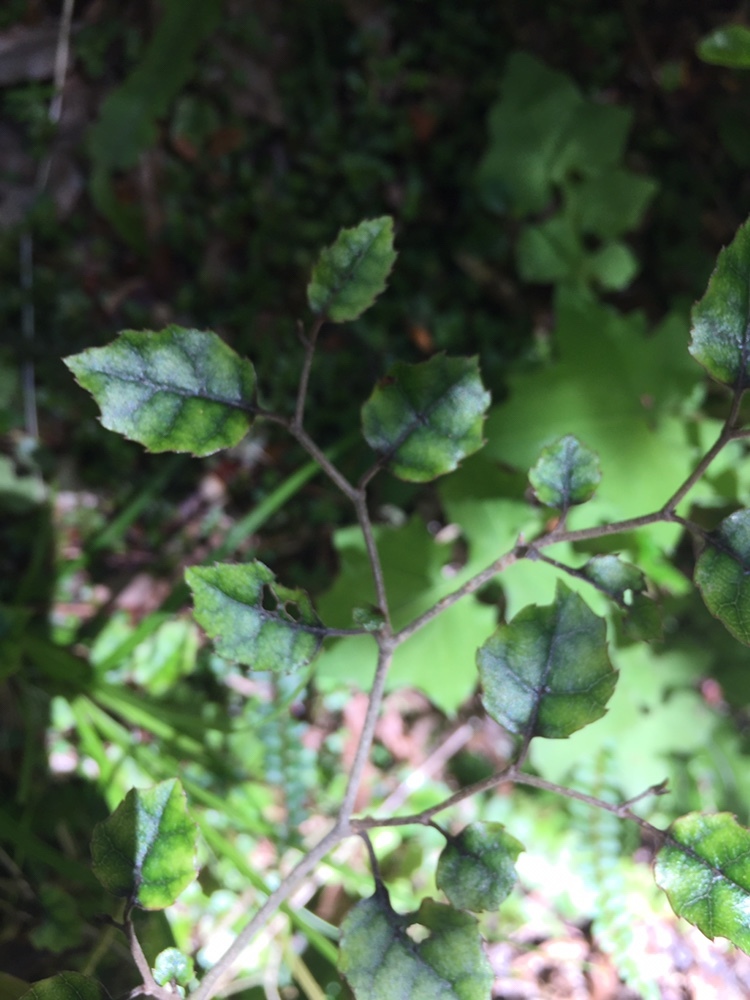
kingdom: Plantae
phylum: Tracheophyta
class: Magnoliopsida
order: Asterales
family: Rousseaceae
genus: Carpodetus
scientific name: Carpodetus serratus
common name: White mapau
